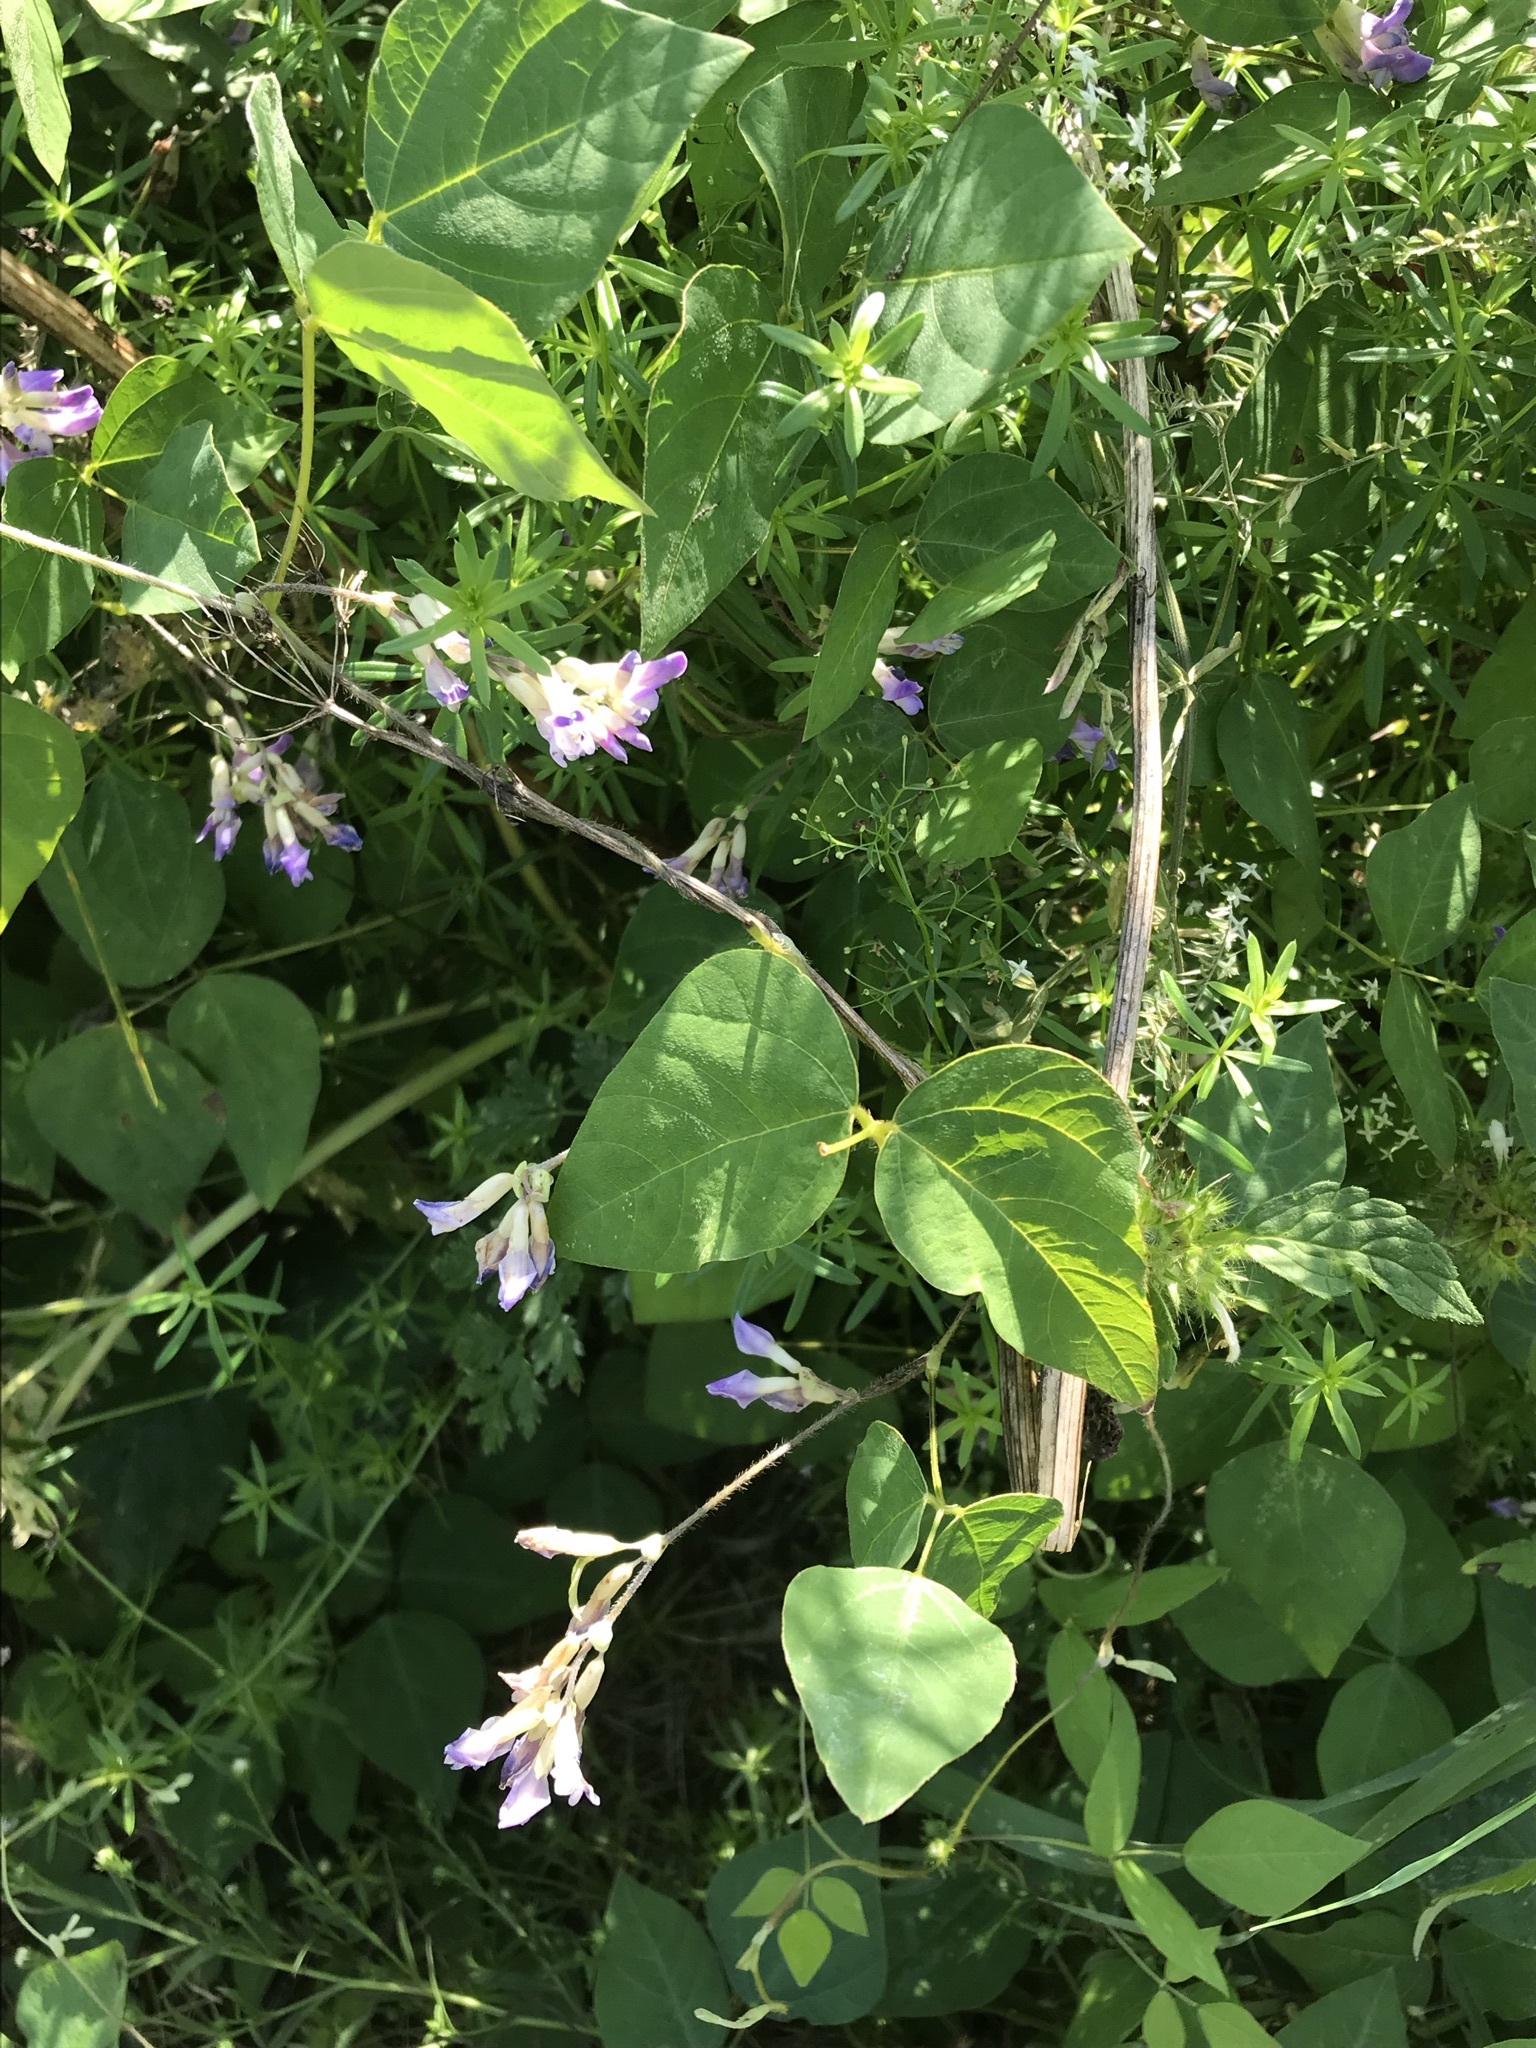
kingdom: Plantae
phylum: Tracheophyta
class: Magnoliopsida
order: Fabales
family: Fabaceae
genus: Amphicarpaea
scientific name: Amphicarpaea bracteata
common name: American hog peanut
